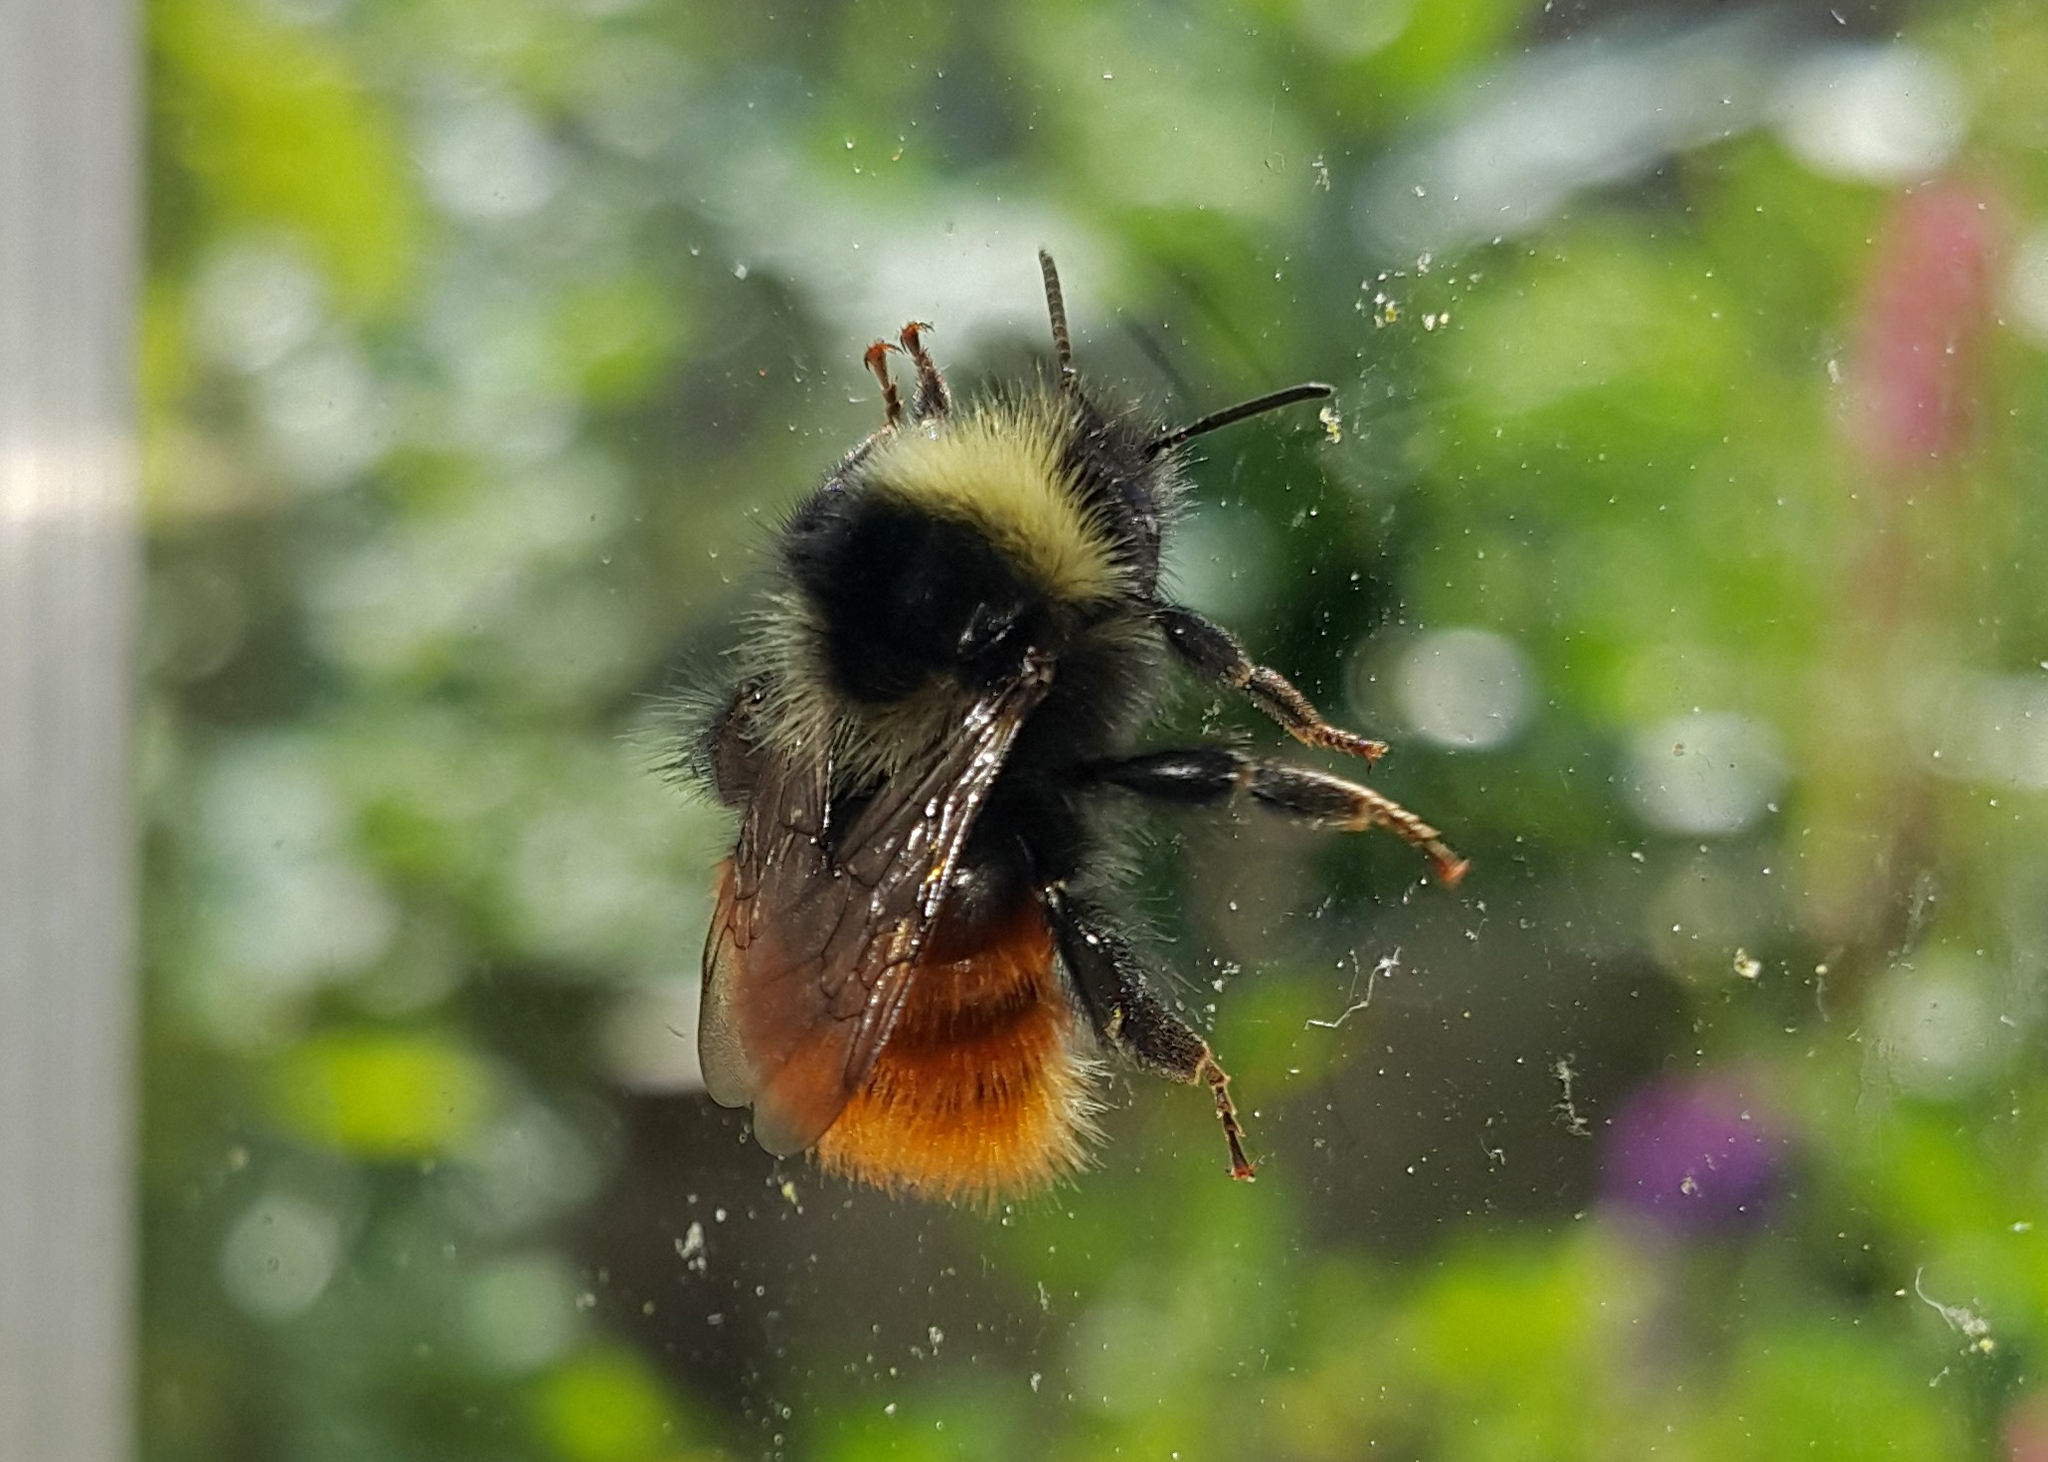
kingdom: Animalia
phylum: Arthropoda
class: Insecta
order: Hymenoptera
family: Apidae
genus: Bombus
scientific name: Bombus monticola
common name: Bilberry humble-bee
